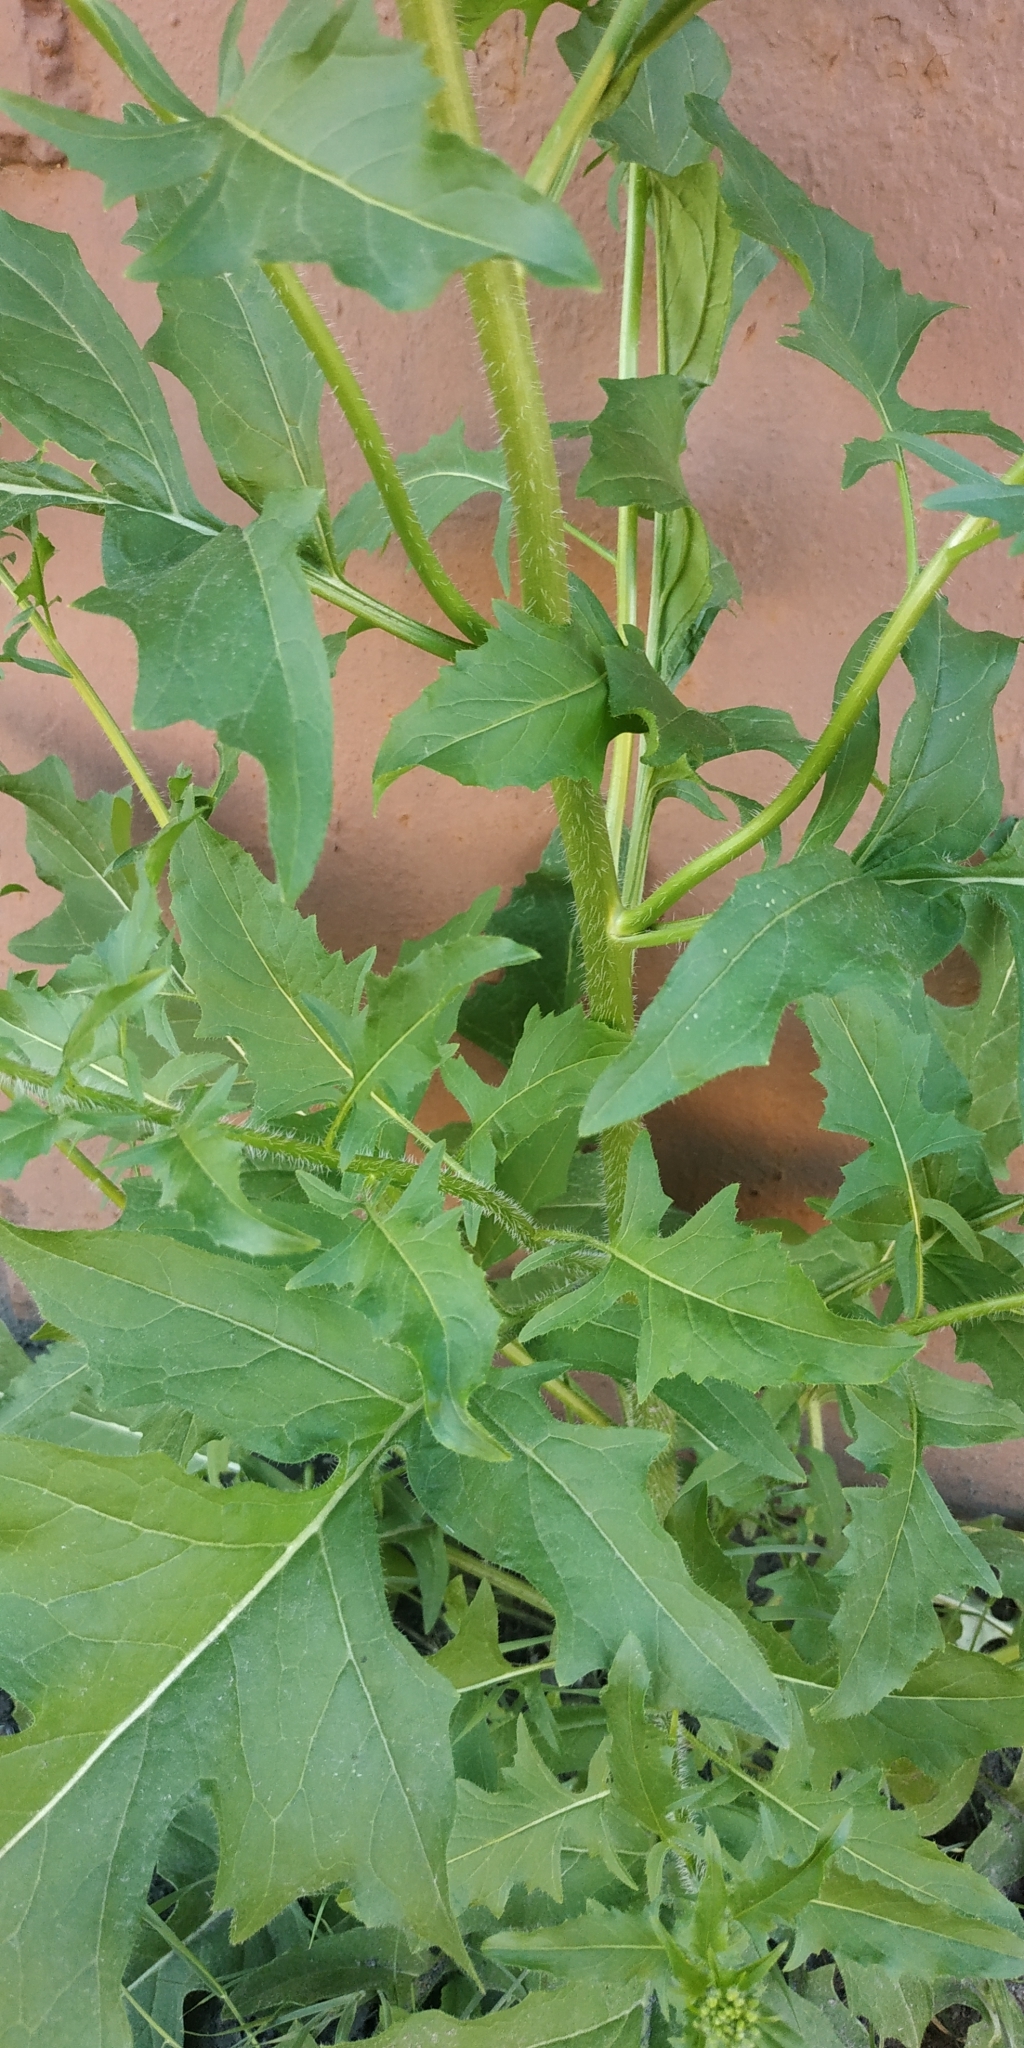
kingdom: Plantae
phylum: Tracheophyta
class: Magnoliopsida
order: Brassicales
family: Brassicaceae
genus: Sisymbrium
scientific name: Sisymbrium loeselii
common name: False london-rocket
